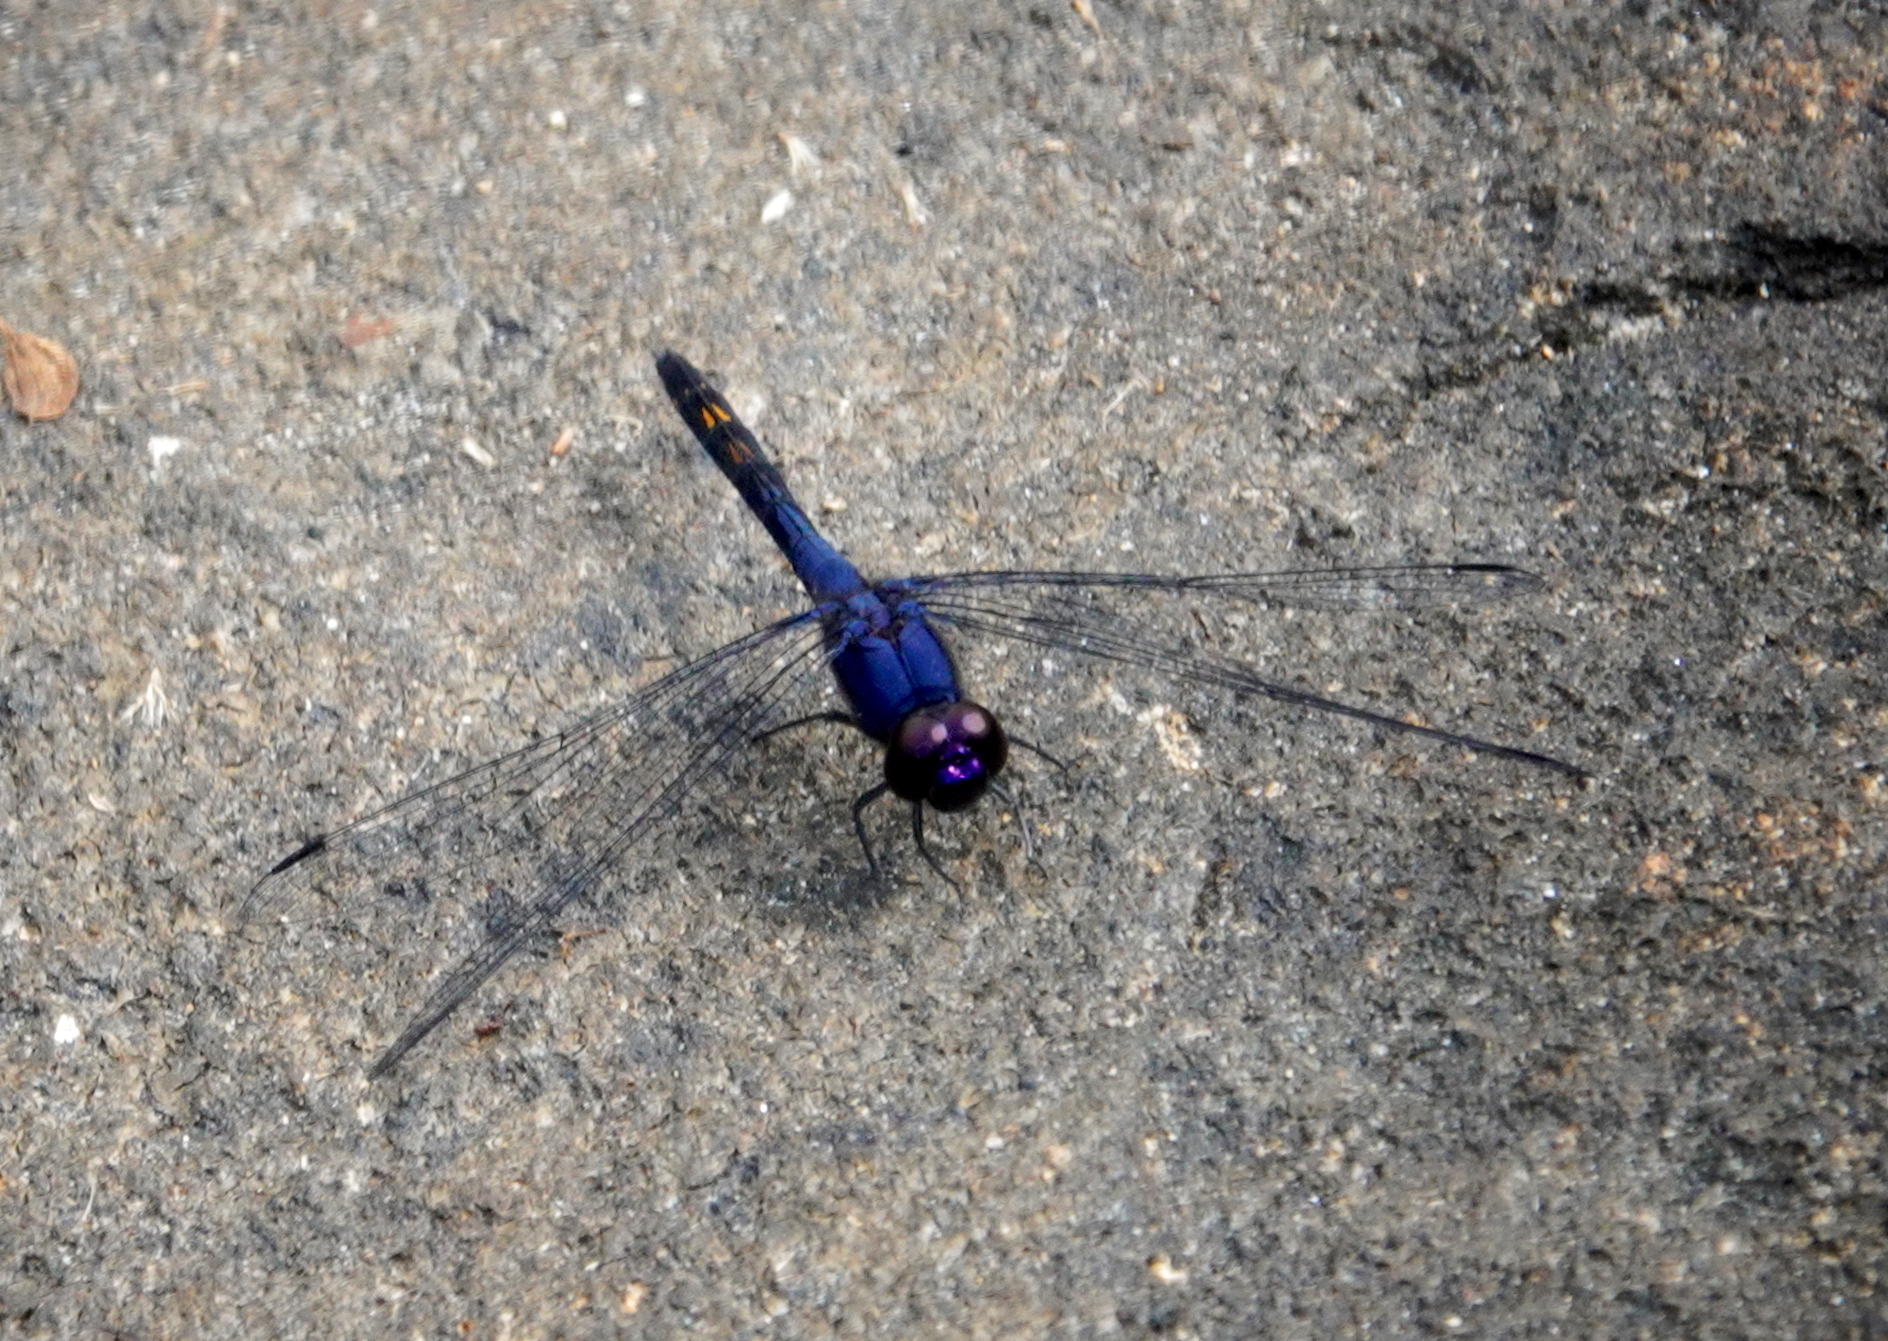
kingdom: Animalia
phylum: Arthropoda
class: Insecta
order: Odonata
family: Libellulidae
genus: Trithemis
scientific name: Trithemis festiva
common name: Indigo dropwing
